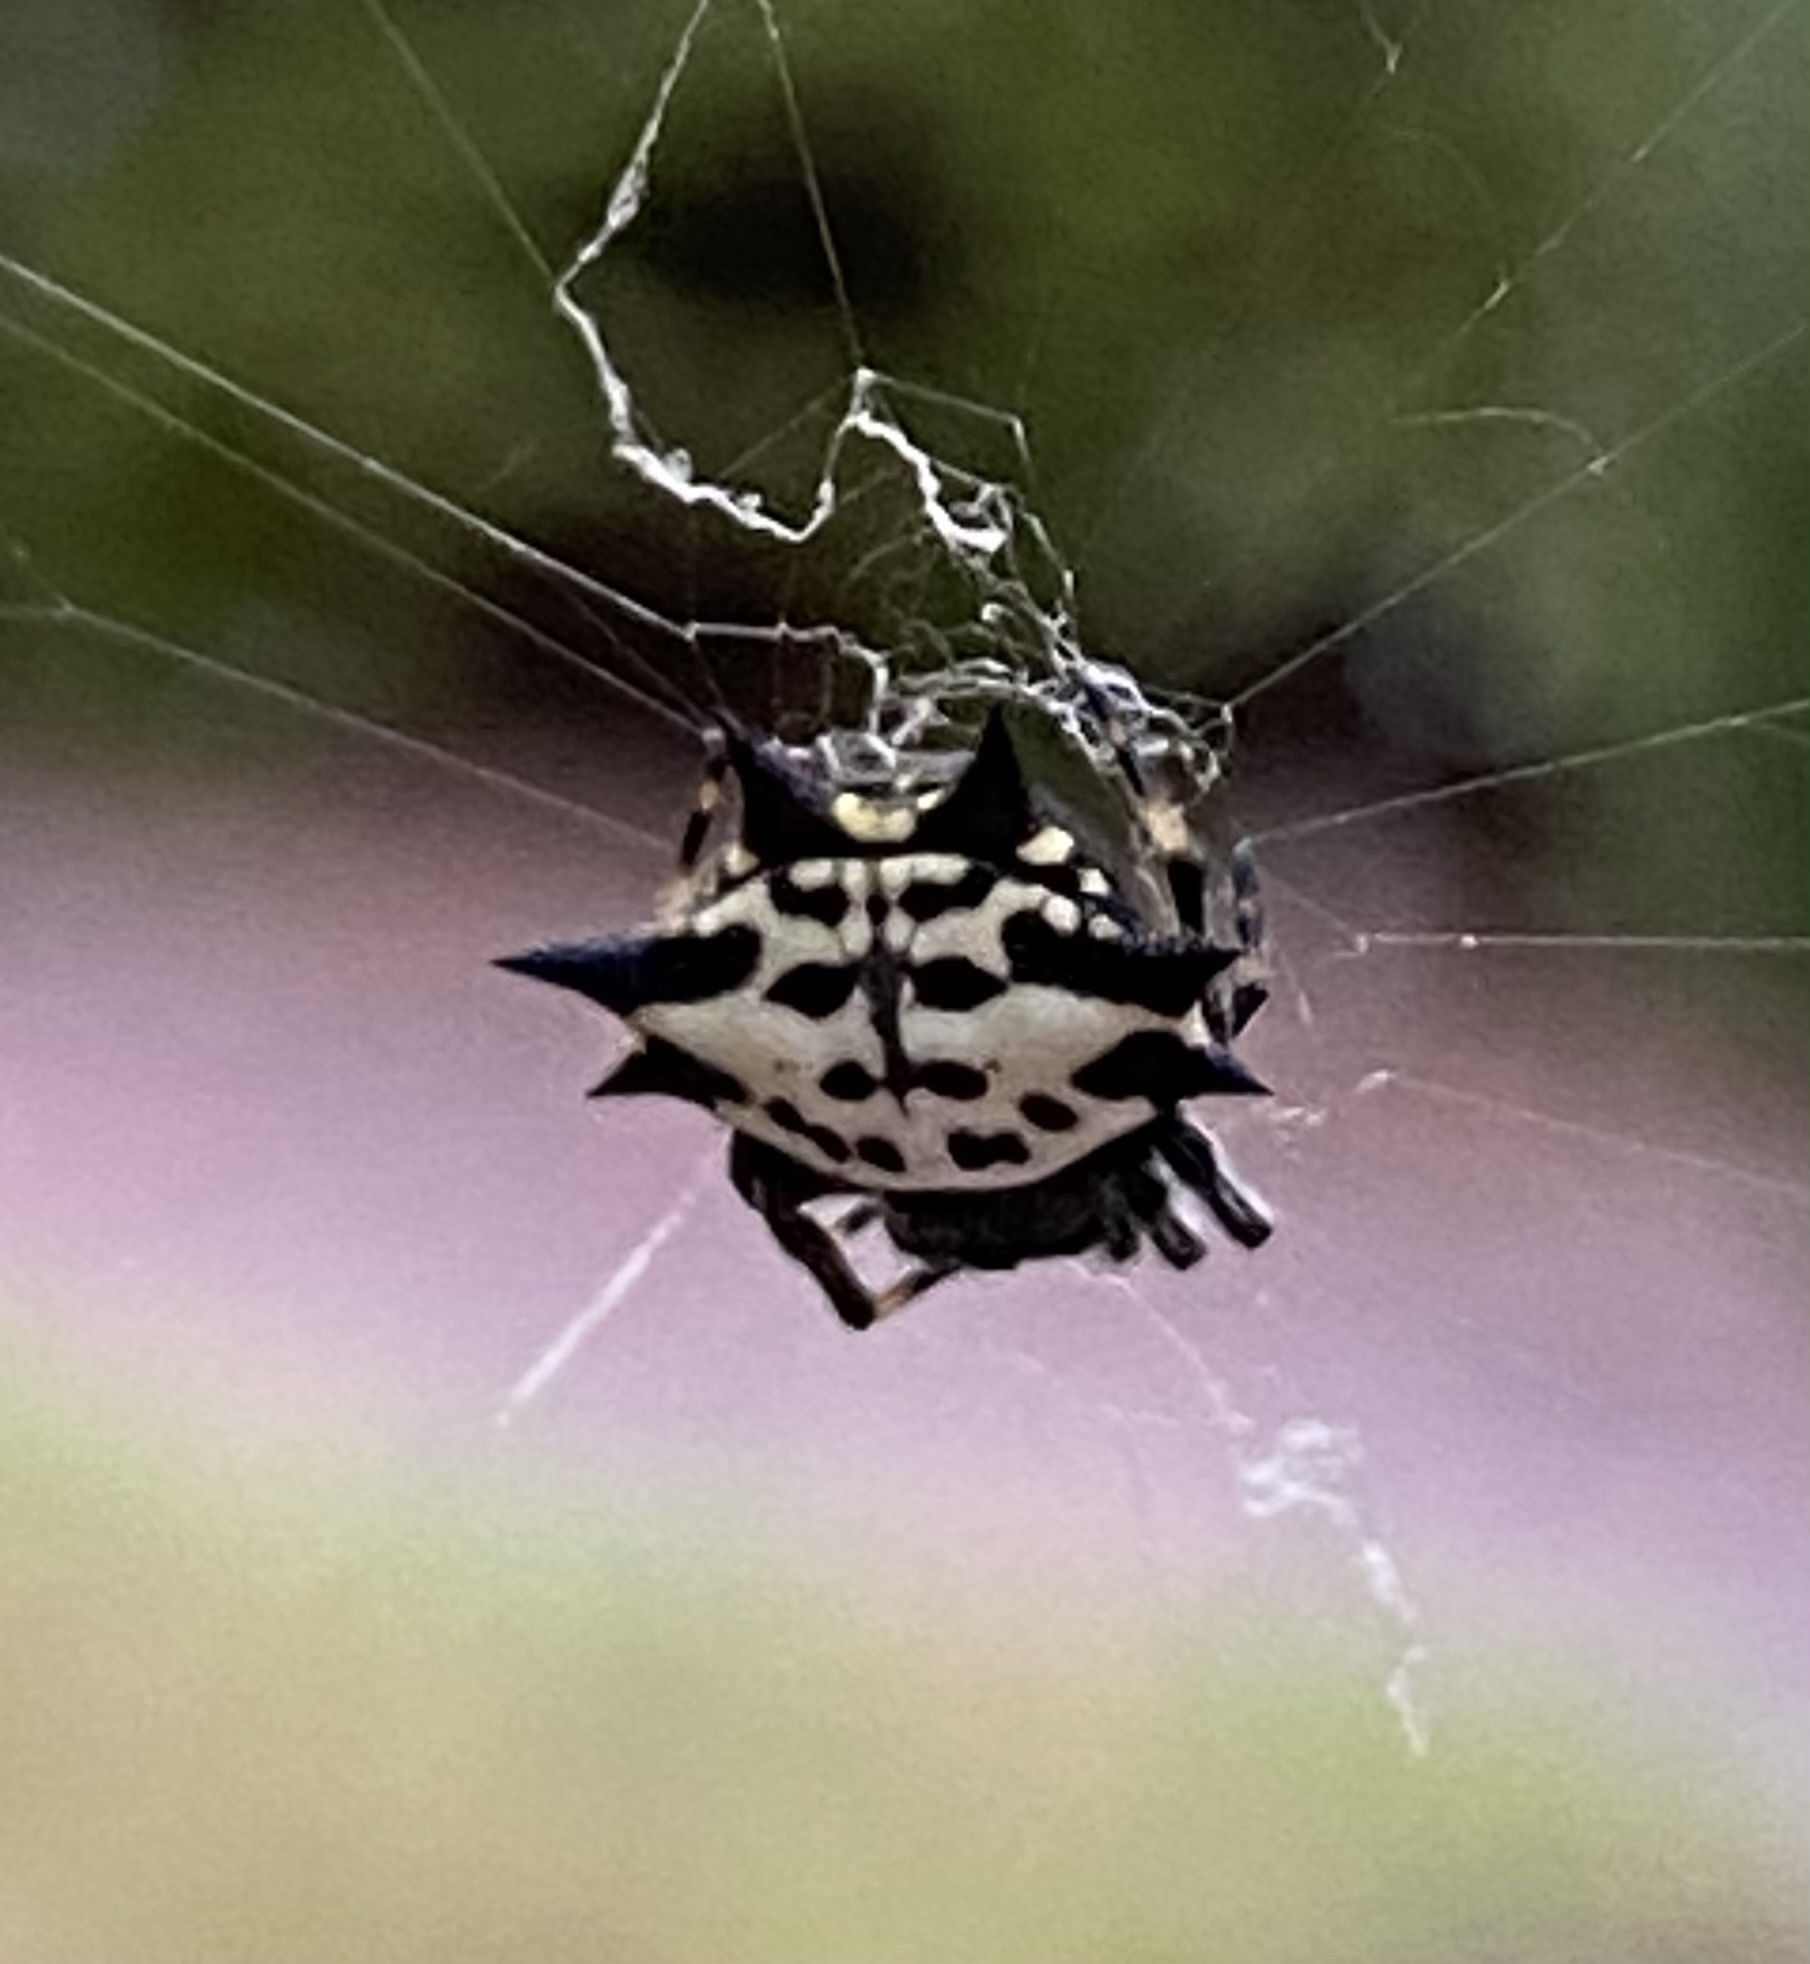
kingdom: Animalia
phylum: Arthropoda
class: Arachnida
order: Araneae
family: Araneidae
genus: Gasteracantha
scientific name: Gasteracantha cancriformis
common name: Orb weavers
